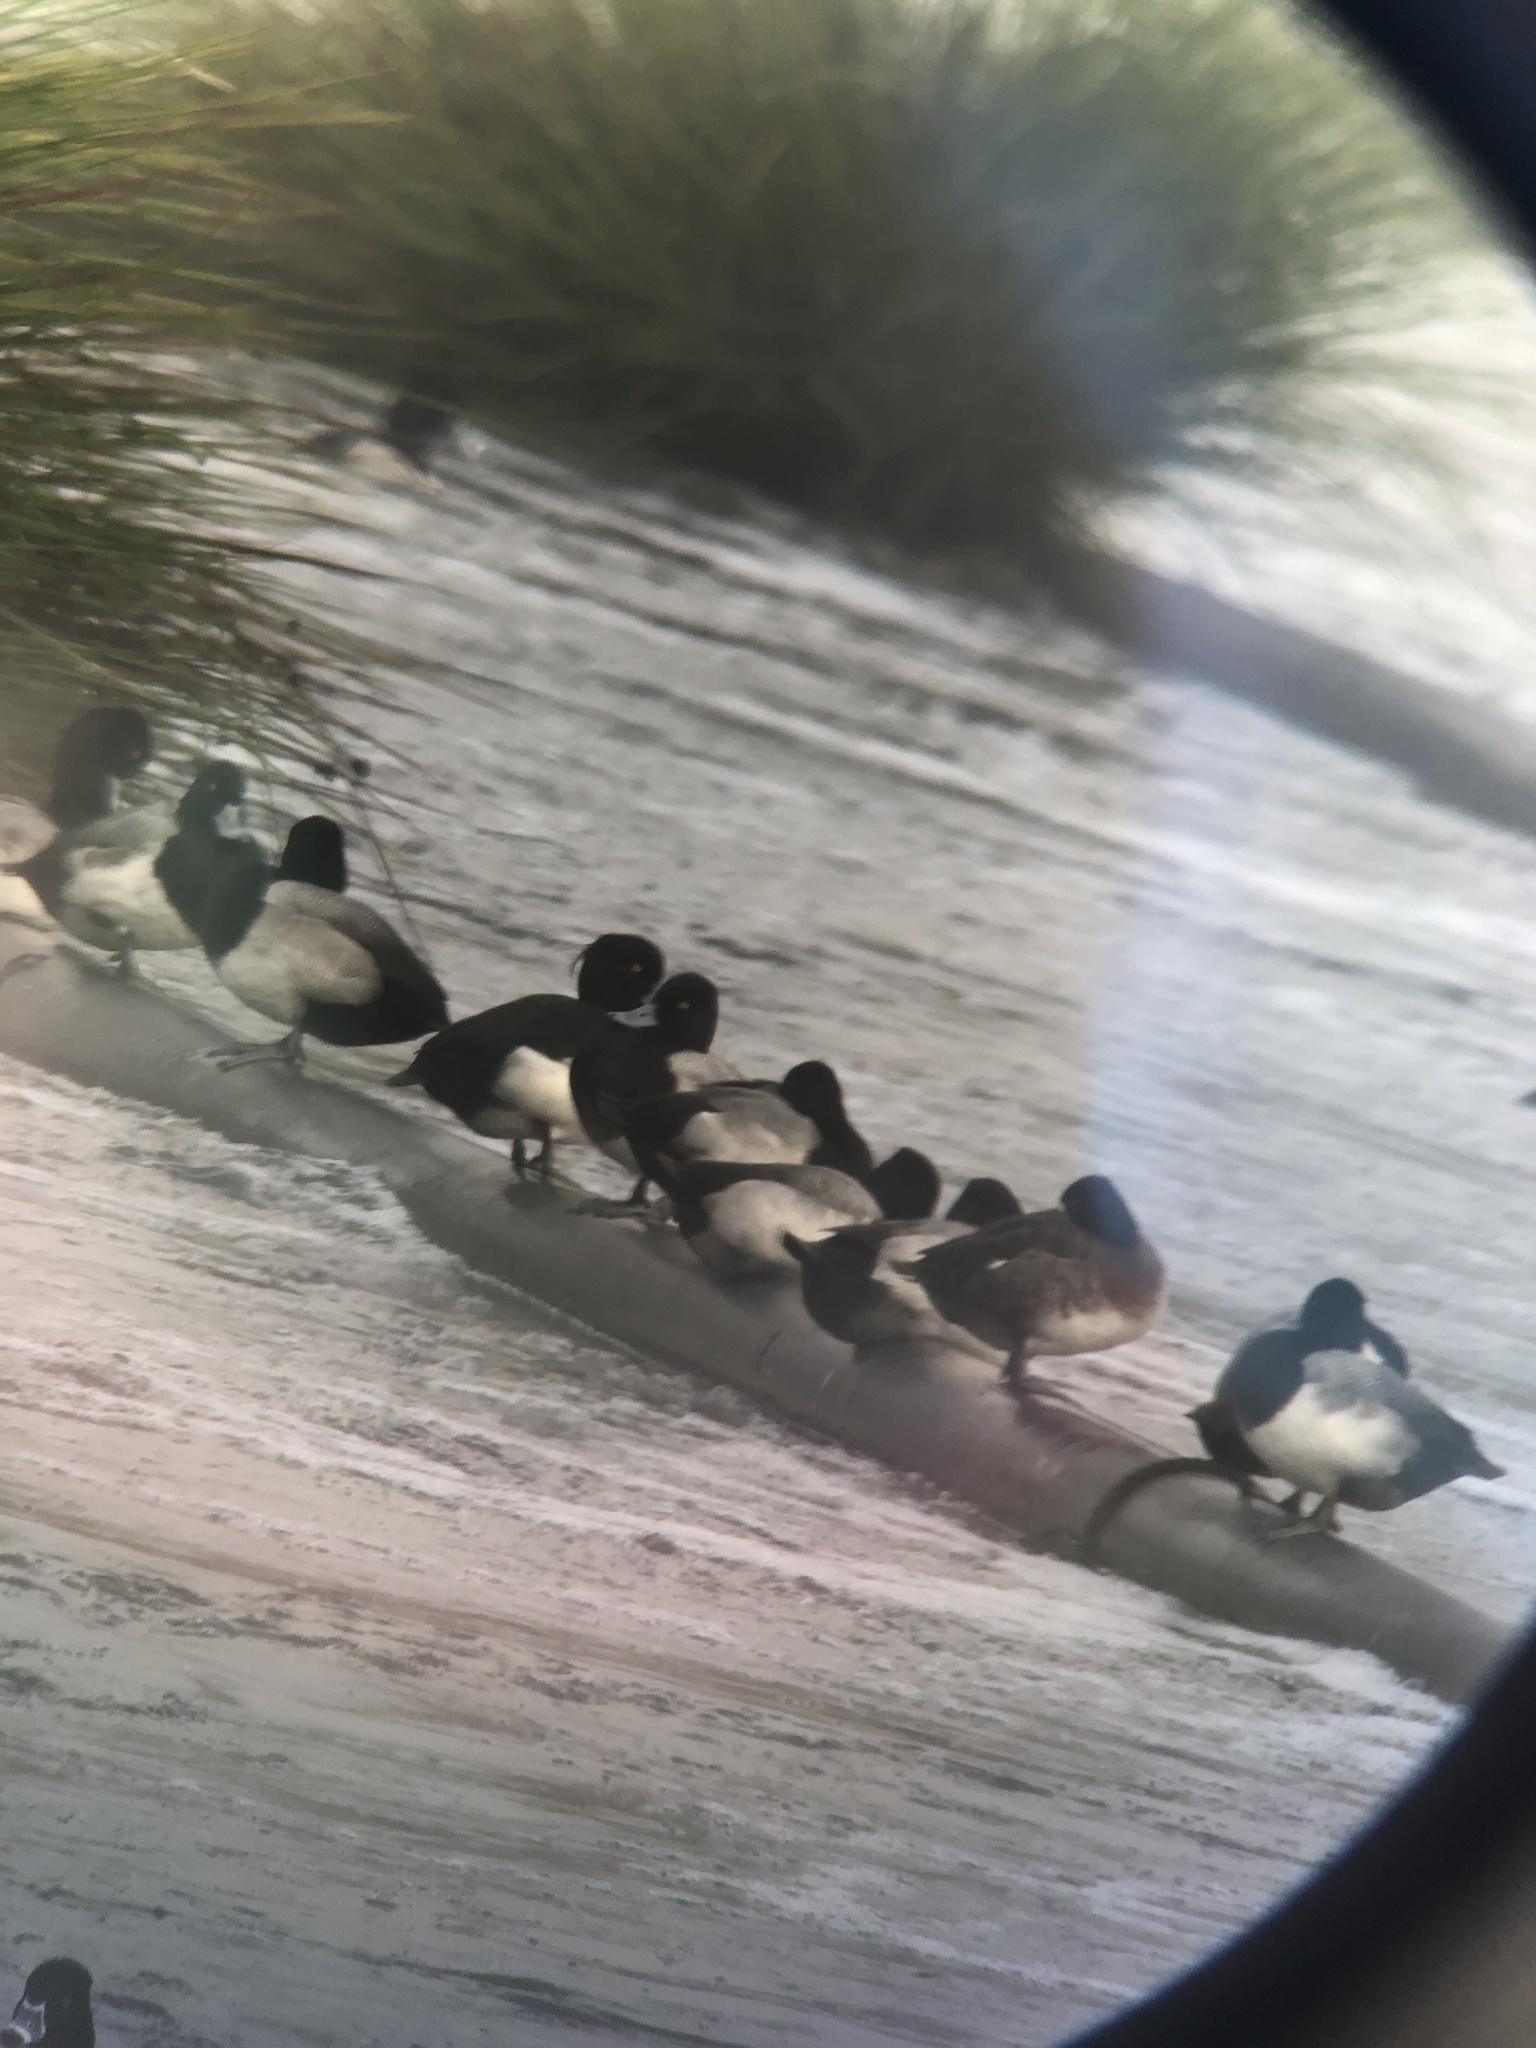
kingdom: Animalia
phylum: Chordata
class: Aves
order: Anseriformes
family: Anatidae
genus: Aythya
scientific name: Aythya fuligula
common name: Tufted duck
